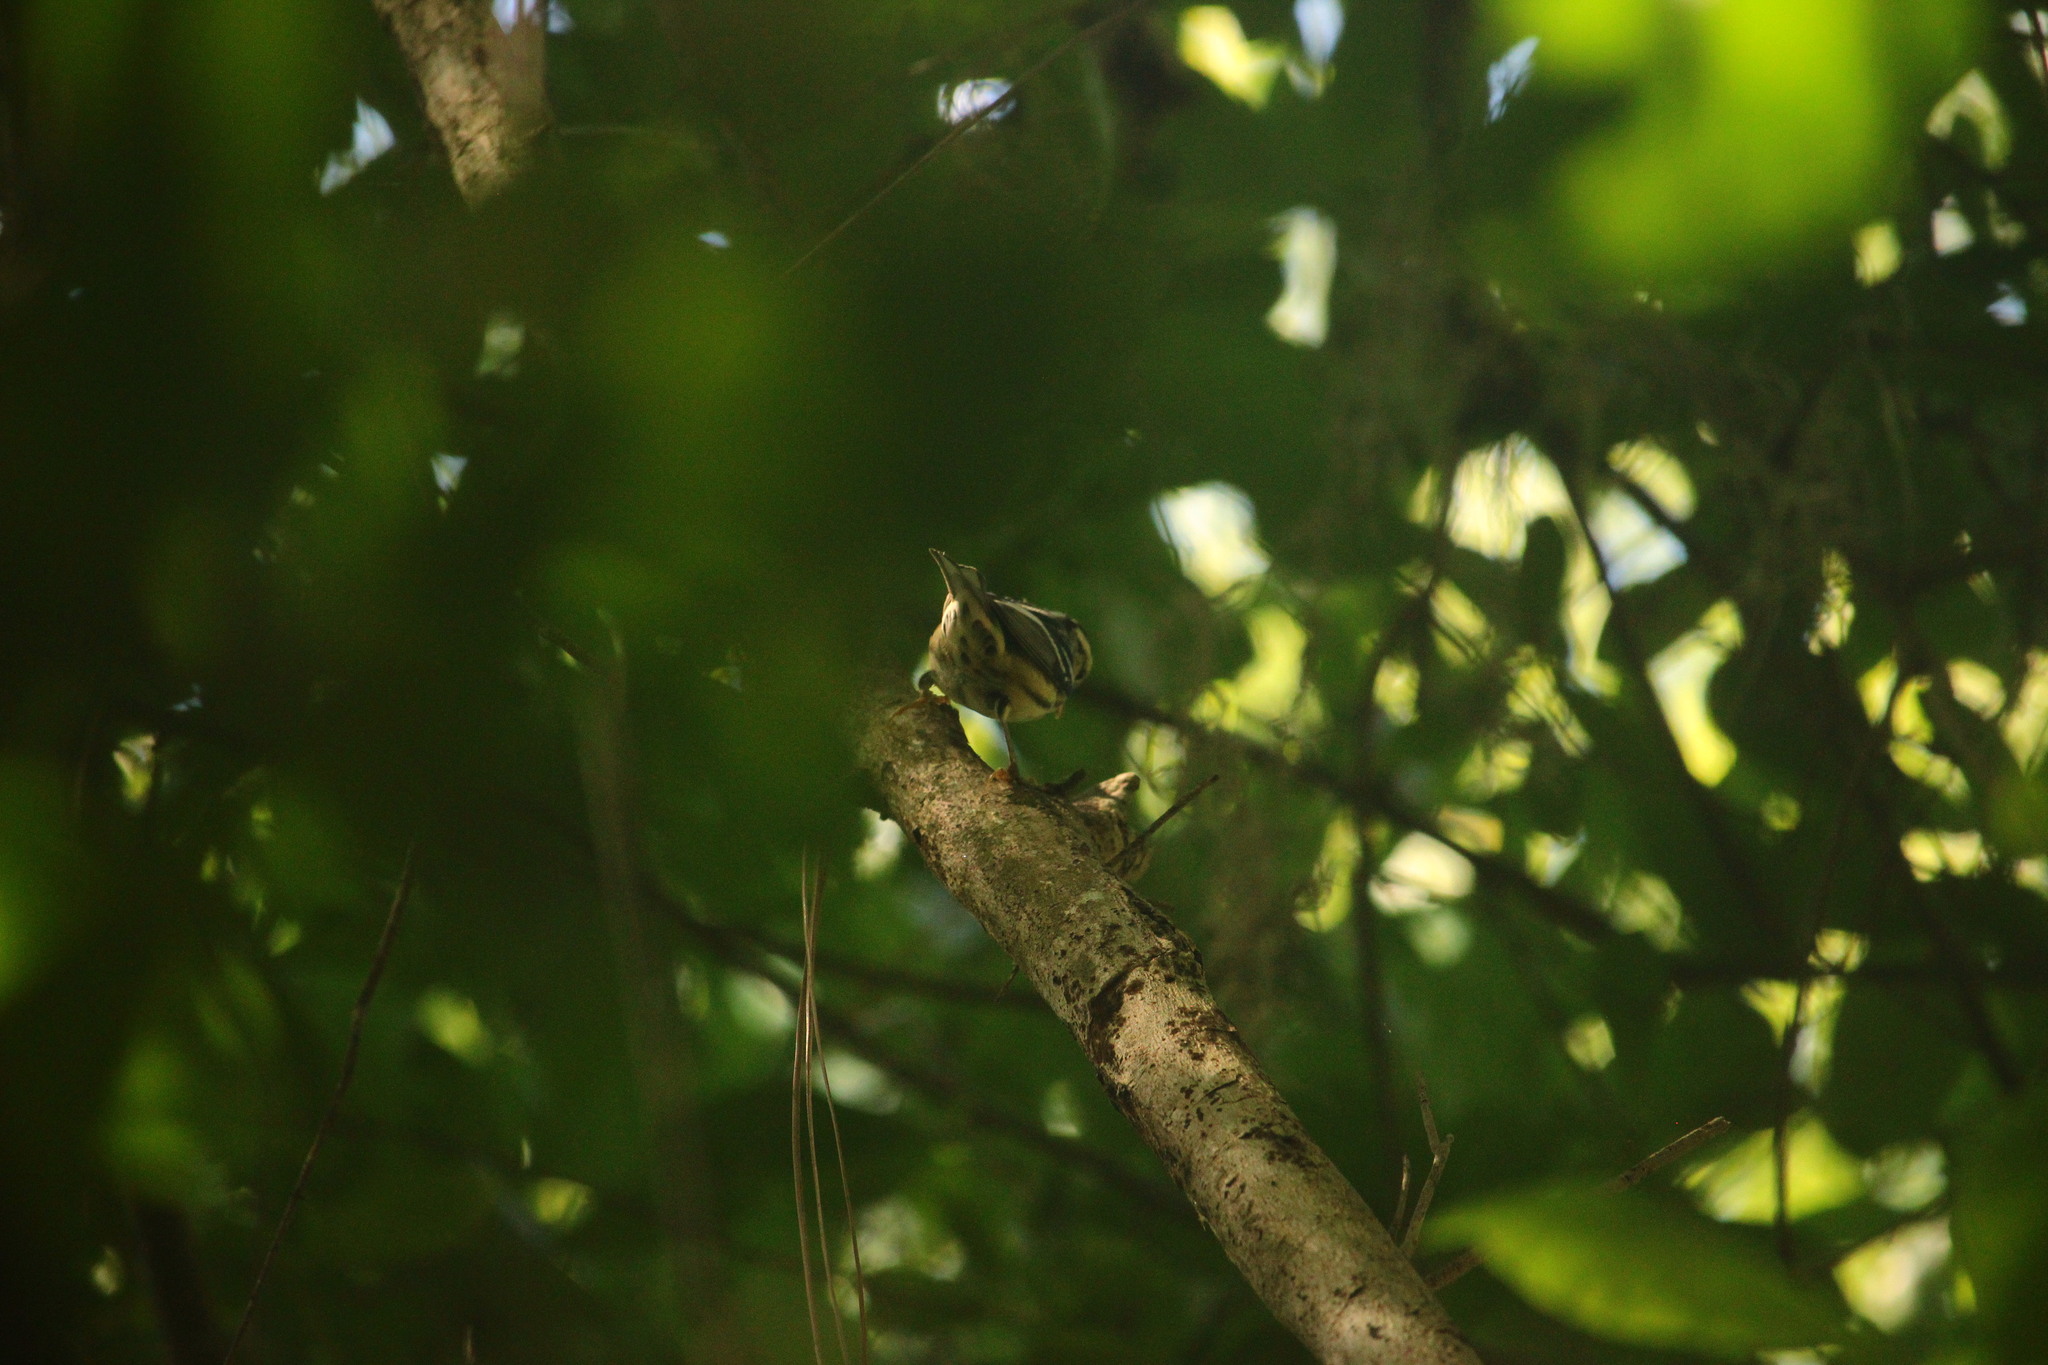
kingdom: Animalia
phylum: Chordata
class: Aves
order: Passeriformes
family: Parulidae
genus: Mniotilta
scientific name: Mniotilta varia
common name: Black-and-white warbler
